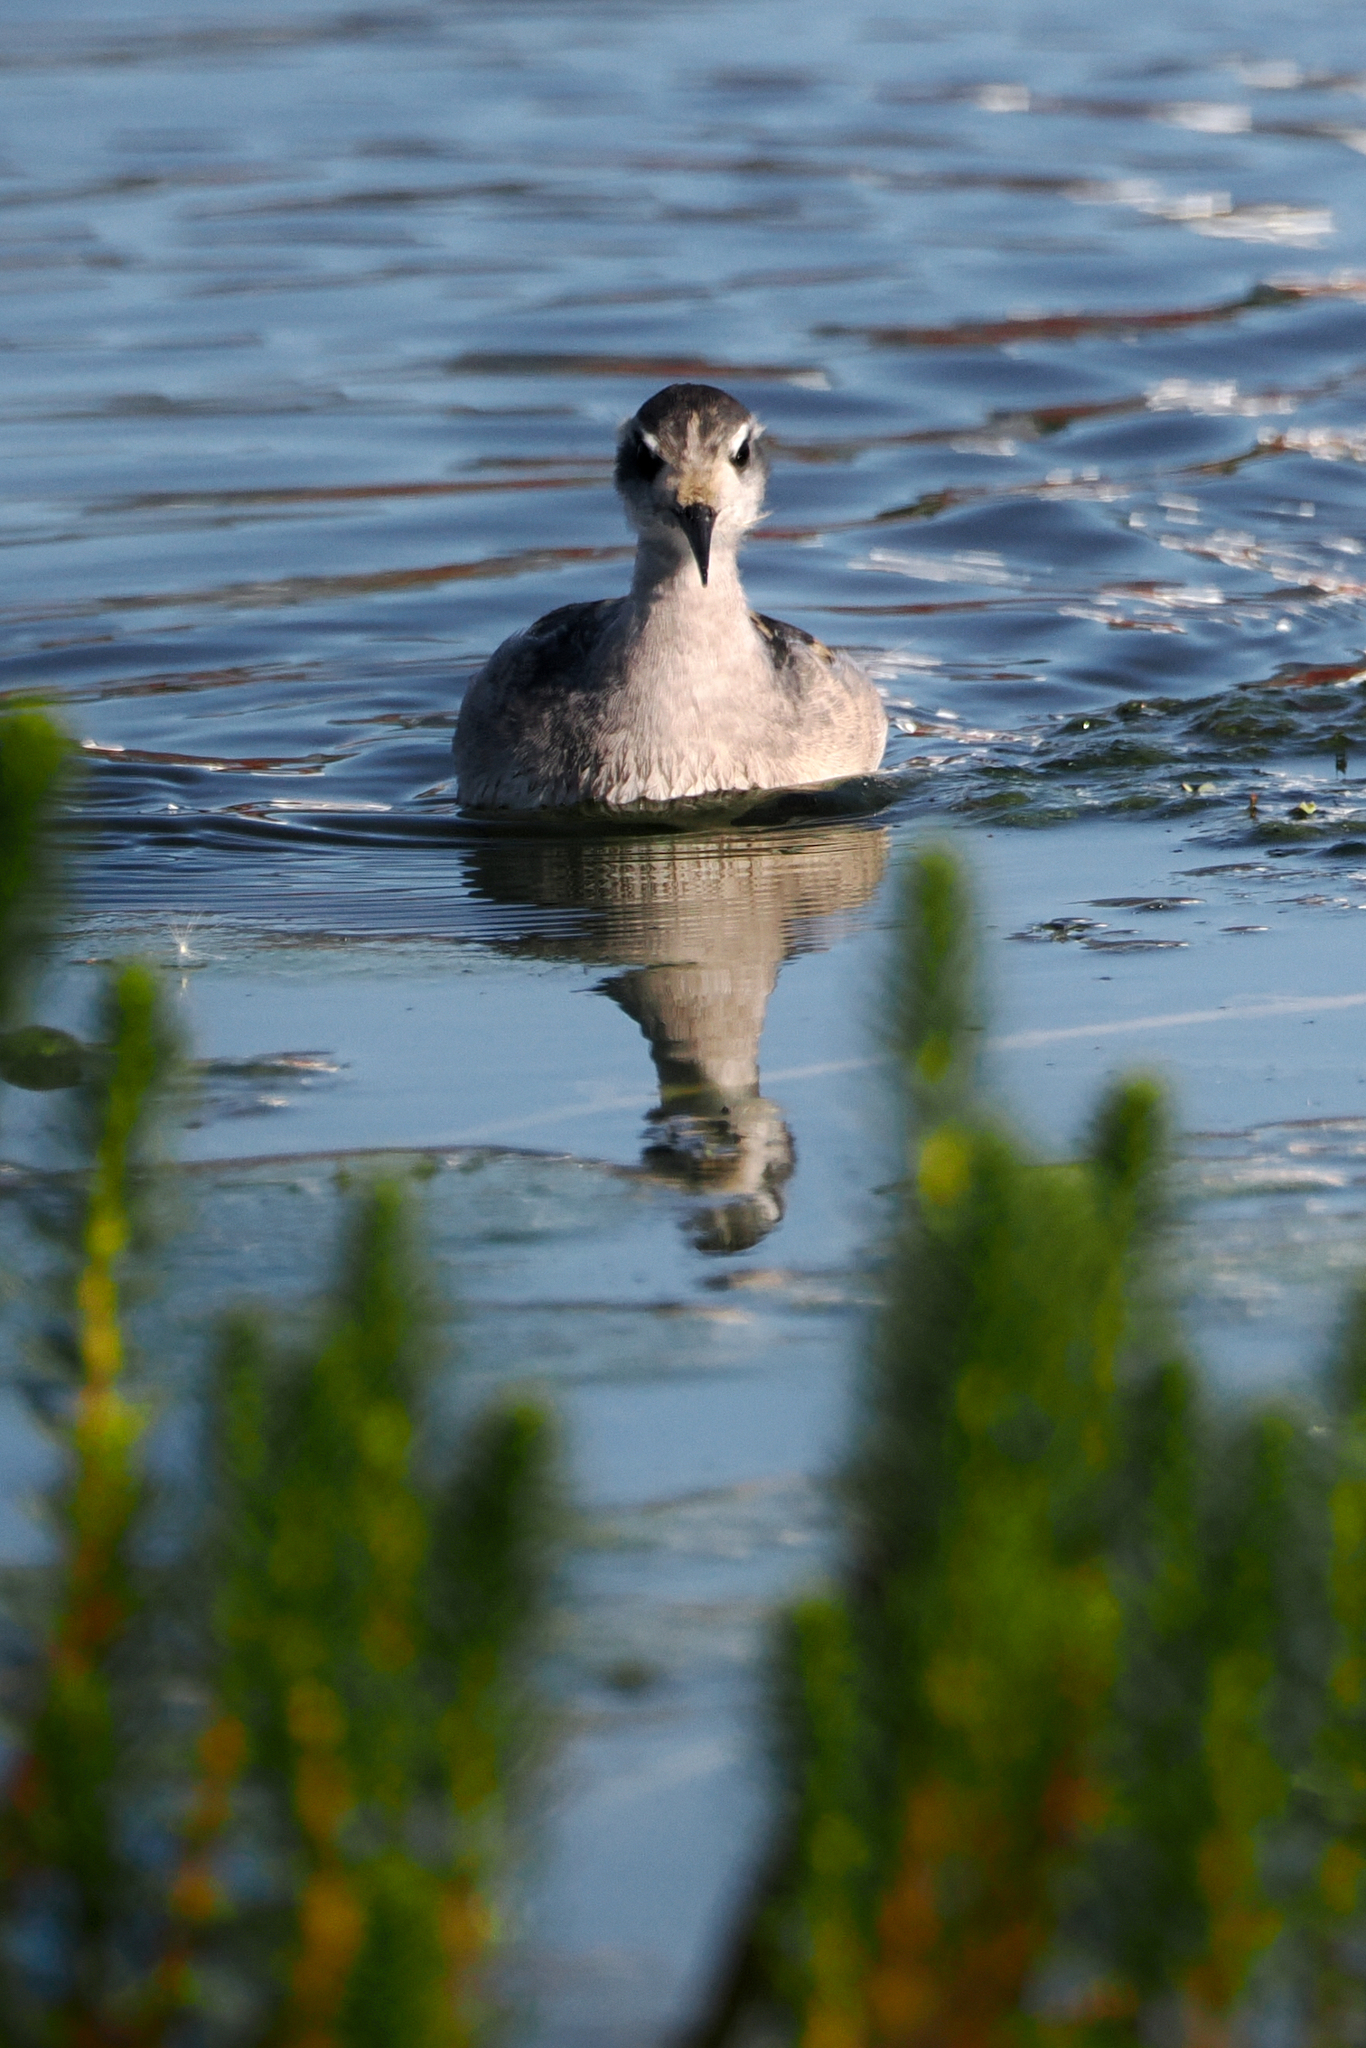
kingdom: Animalia
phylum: Chordata
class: Aves
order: Charadriiformes
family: Scolopacidae
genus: Phalaropus
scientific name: Phalaropus lobatus
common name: Red-necked phalarope
